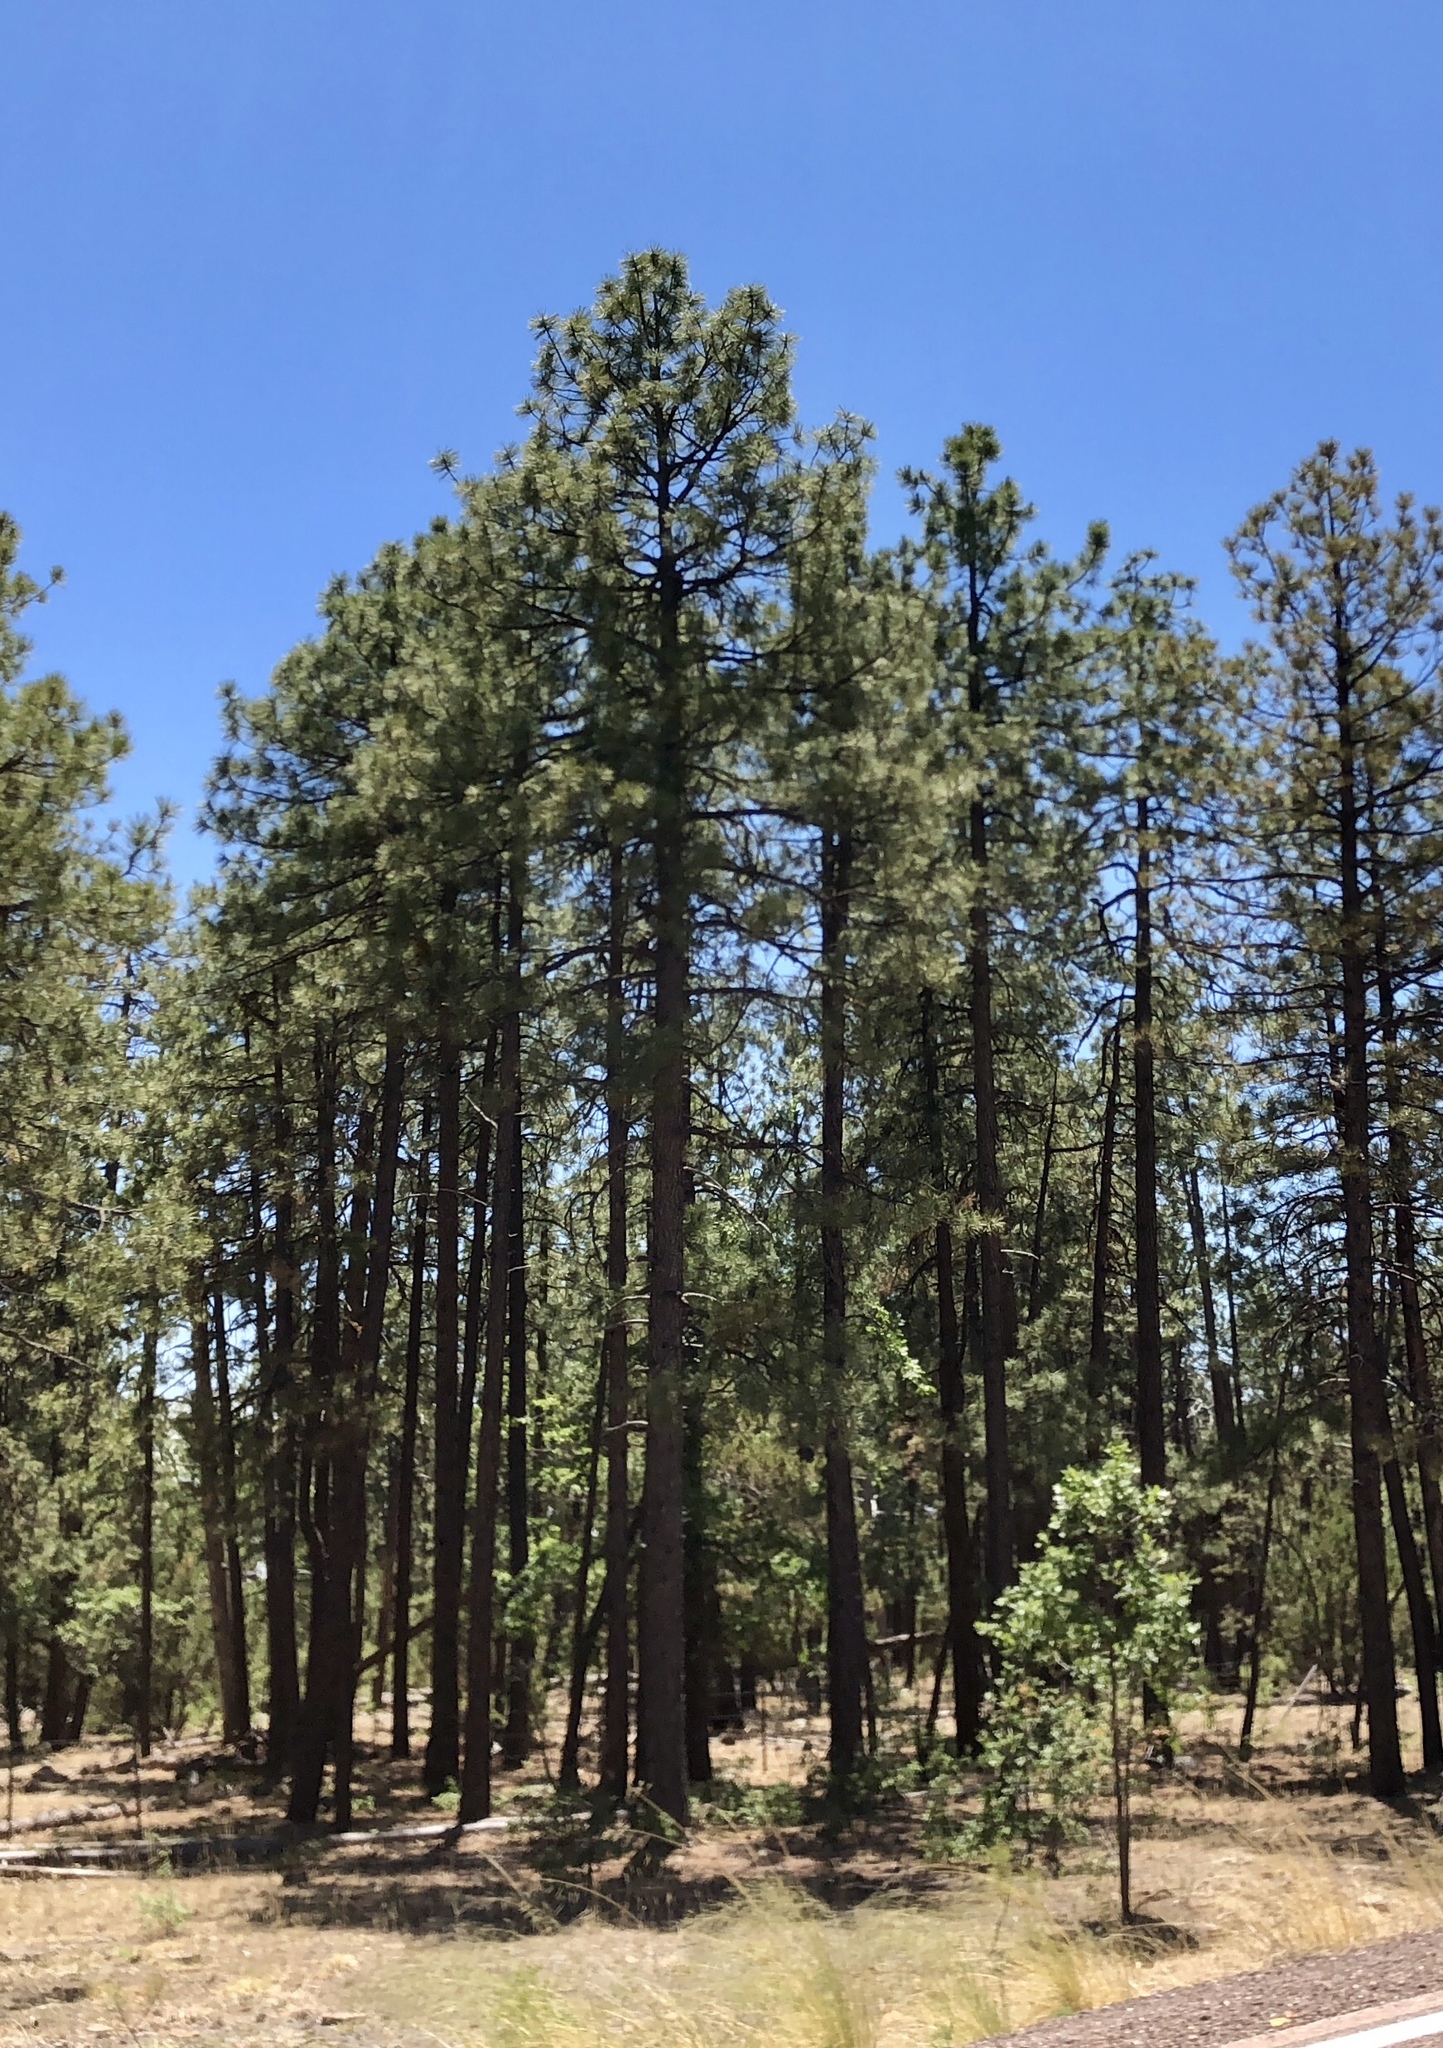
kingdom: Plantae
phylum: Tracheophyta
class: Pinopsida
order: Pinales
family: Pinaceae
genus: Pinus
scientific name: Pinus ponderosa
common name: Western yellow-pine
